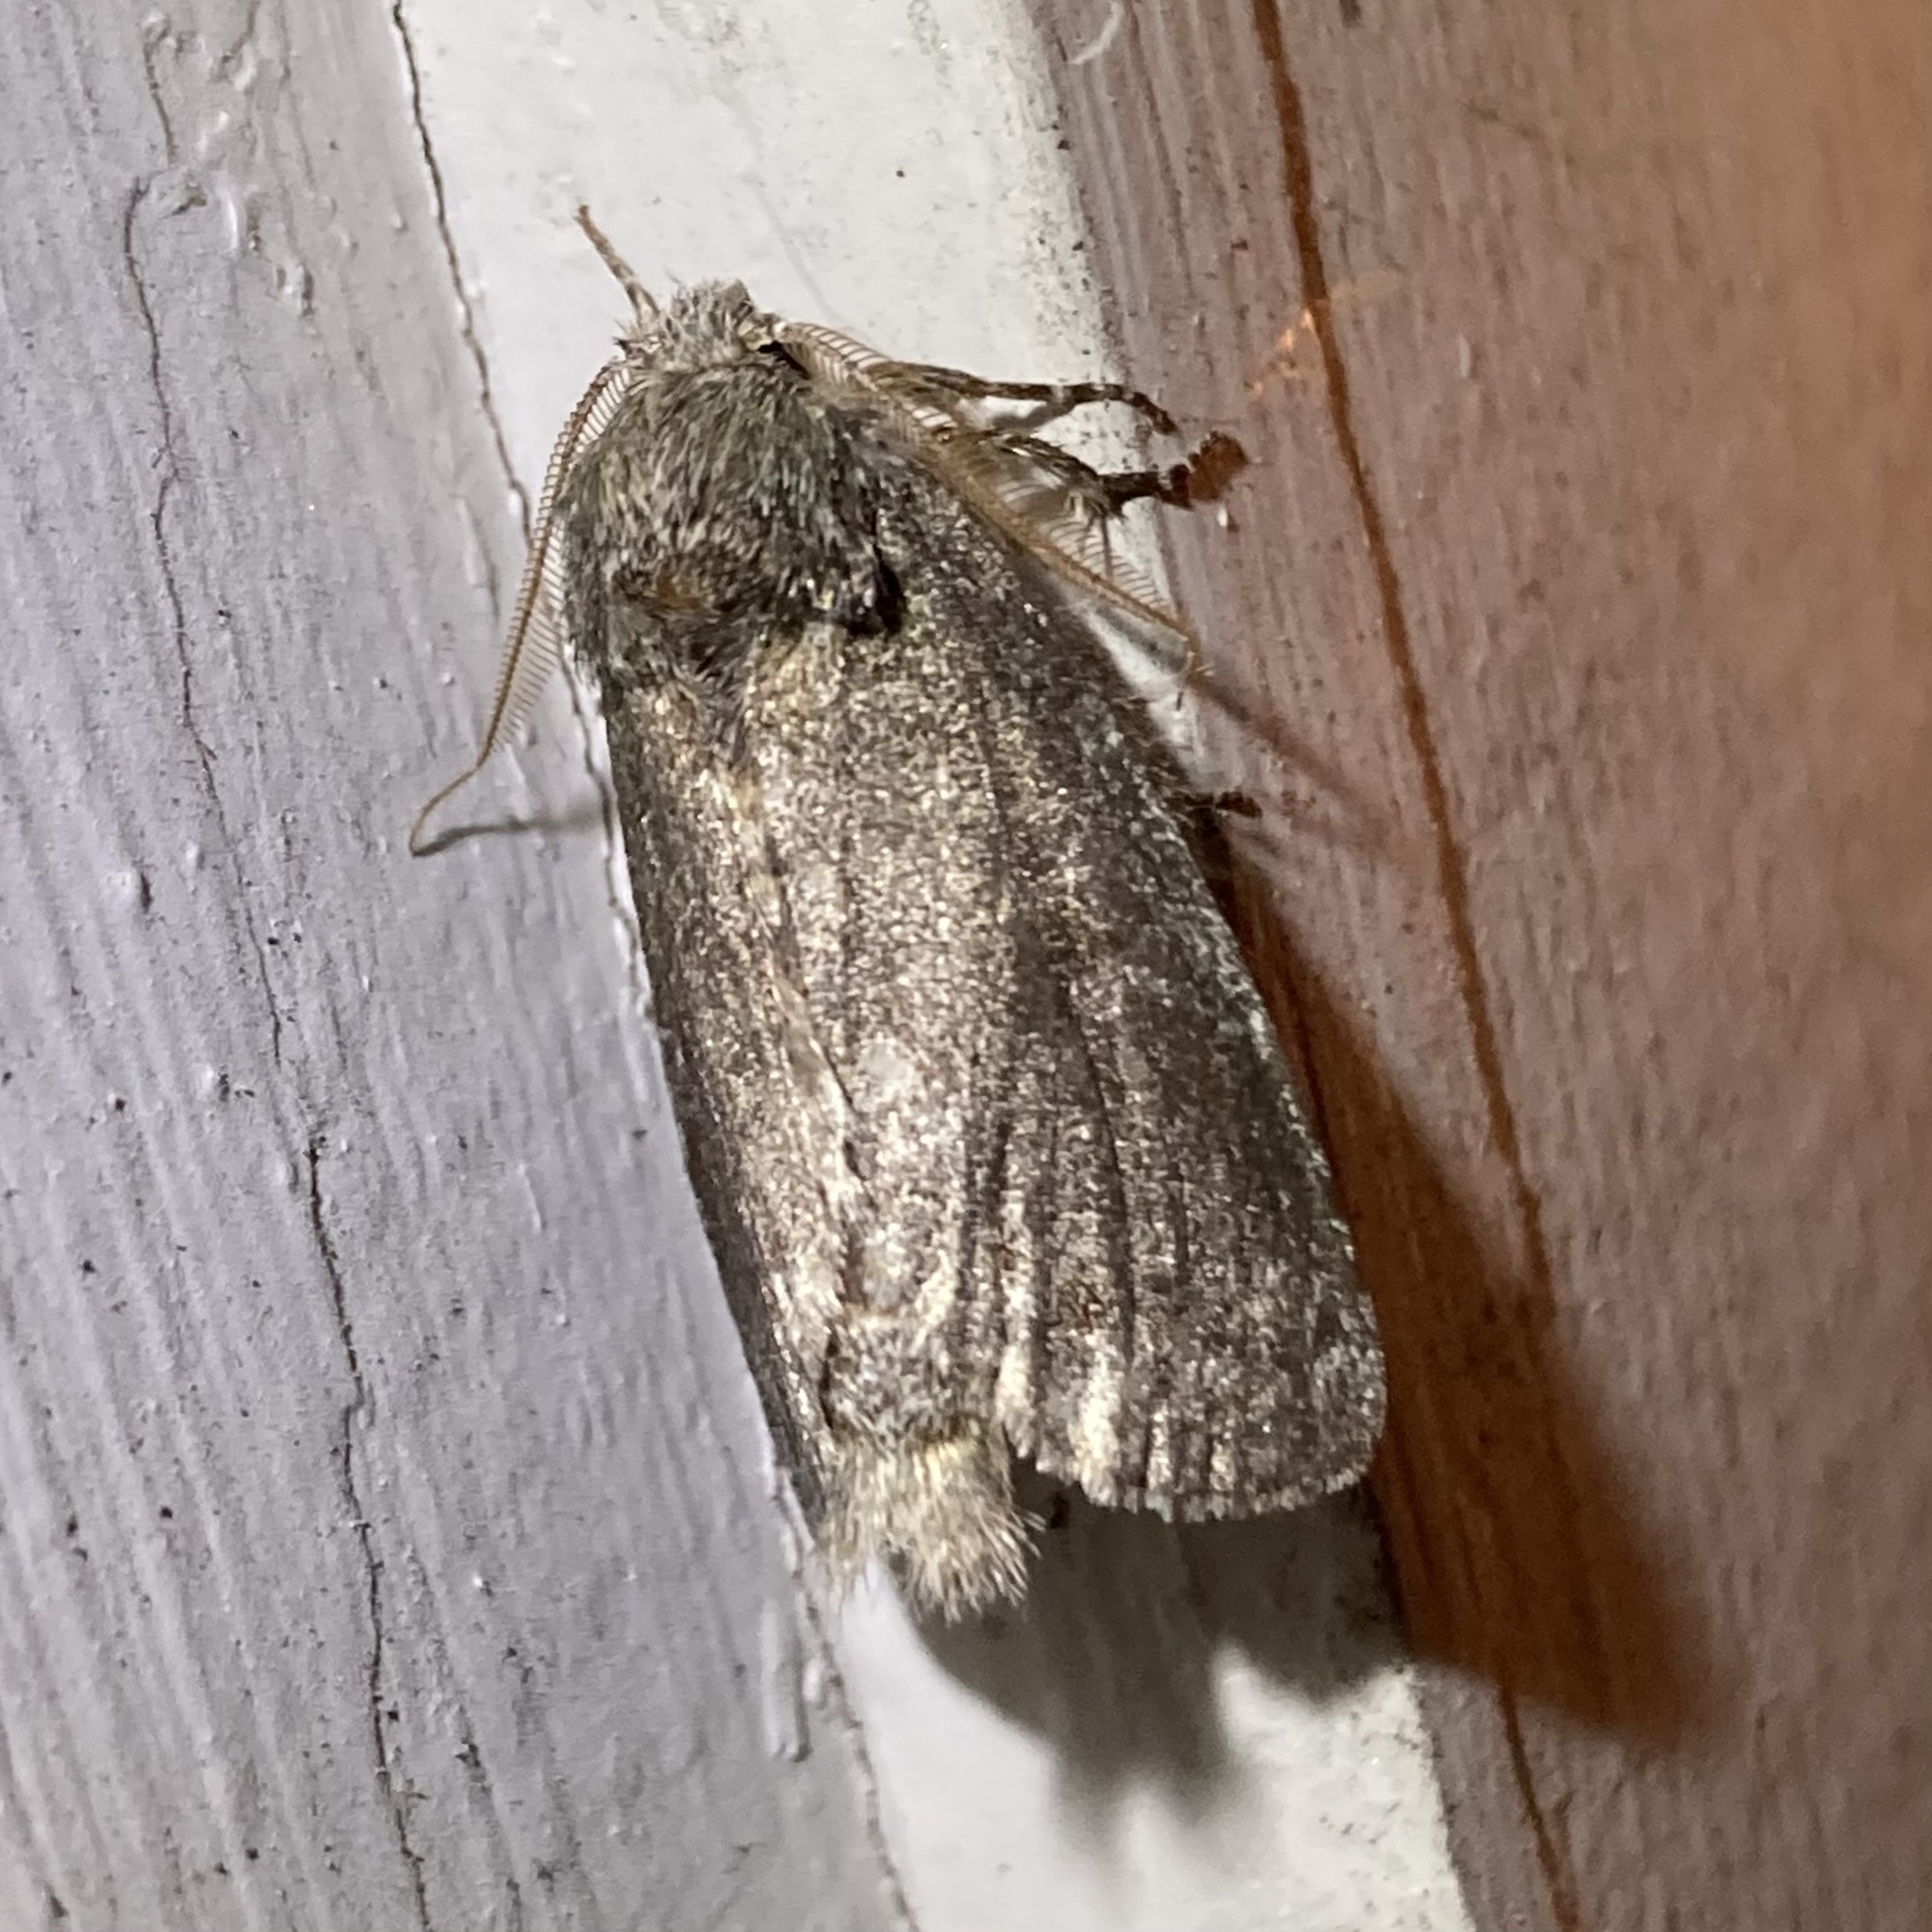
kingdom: Animalia
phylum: Arthropoda
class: Insecta
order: Lepidoptera
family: Notodontidae
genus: Disphragis
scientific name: Disphragis Cecrita guttivitta
